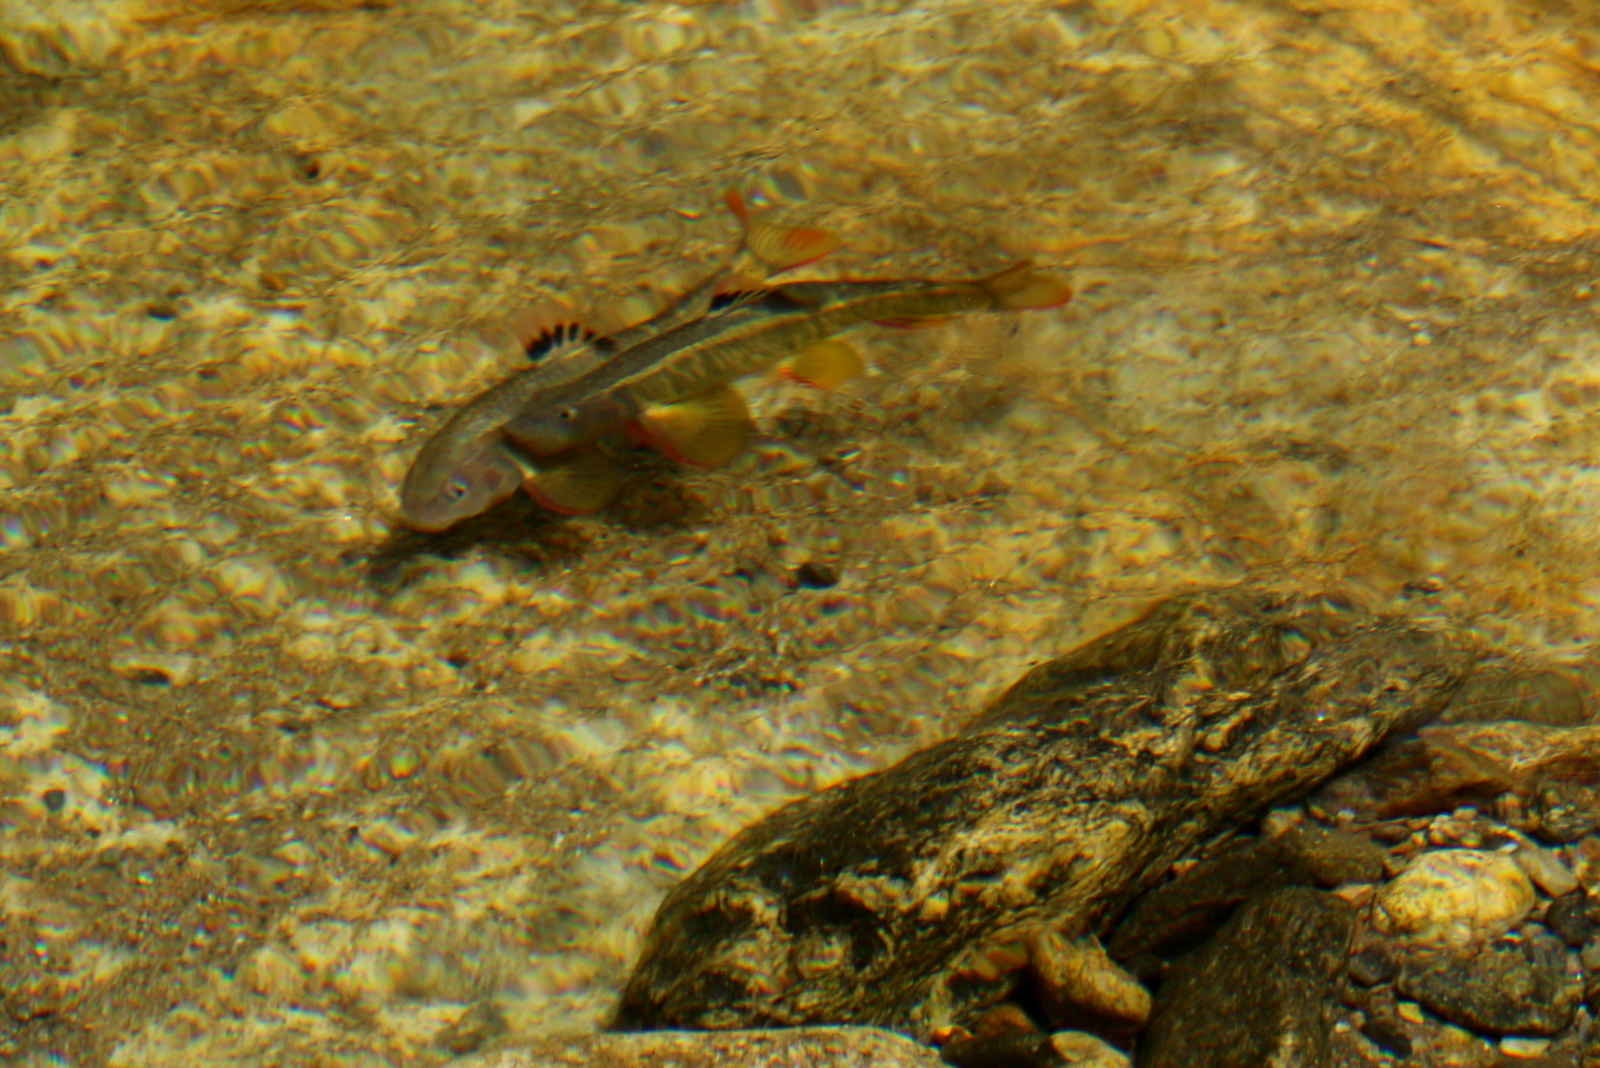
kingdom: Animalia
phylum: Chordata
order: Cypriniformes
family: Cyprinidae
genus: Sarcocheilichthys
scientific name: Sarcocheilichthys variegatus
